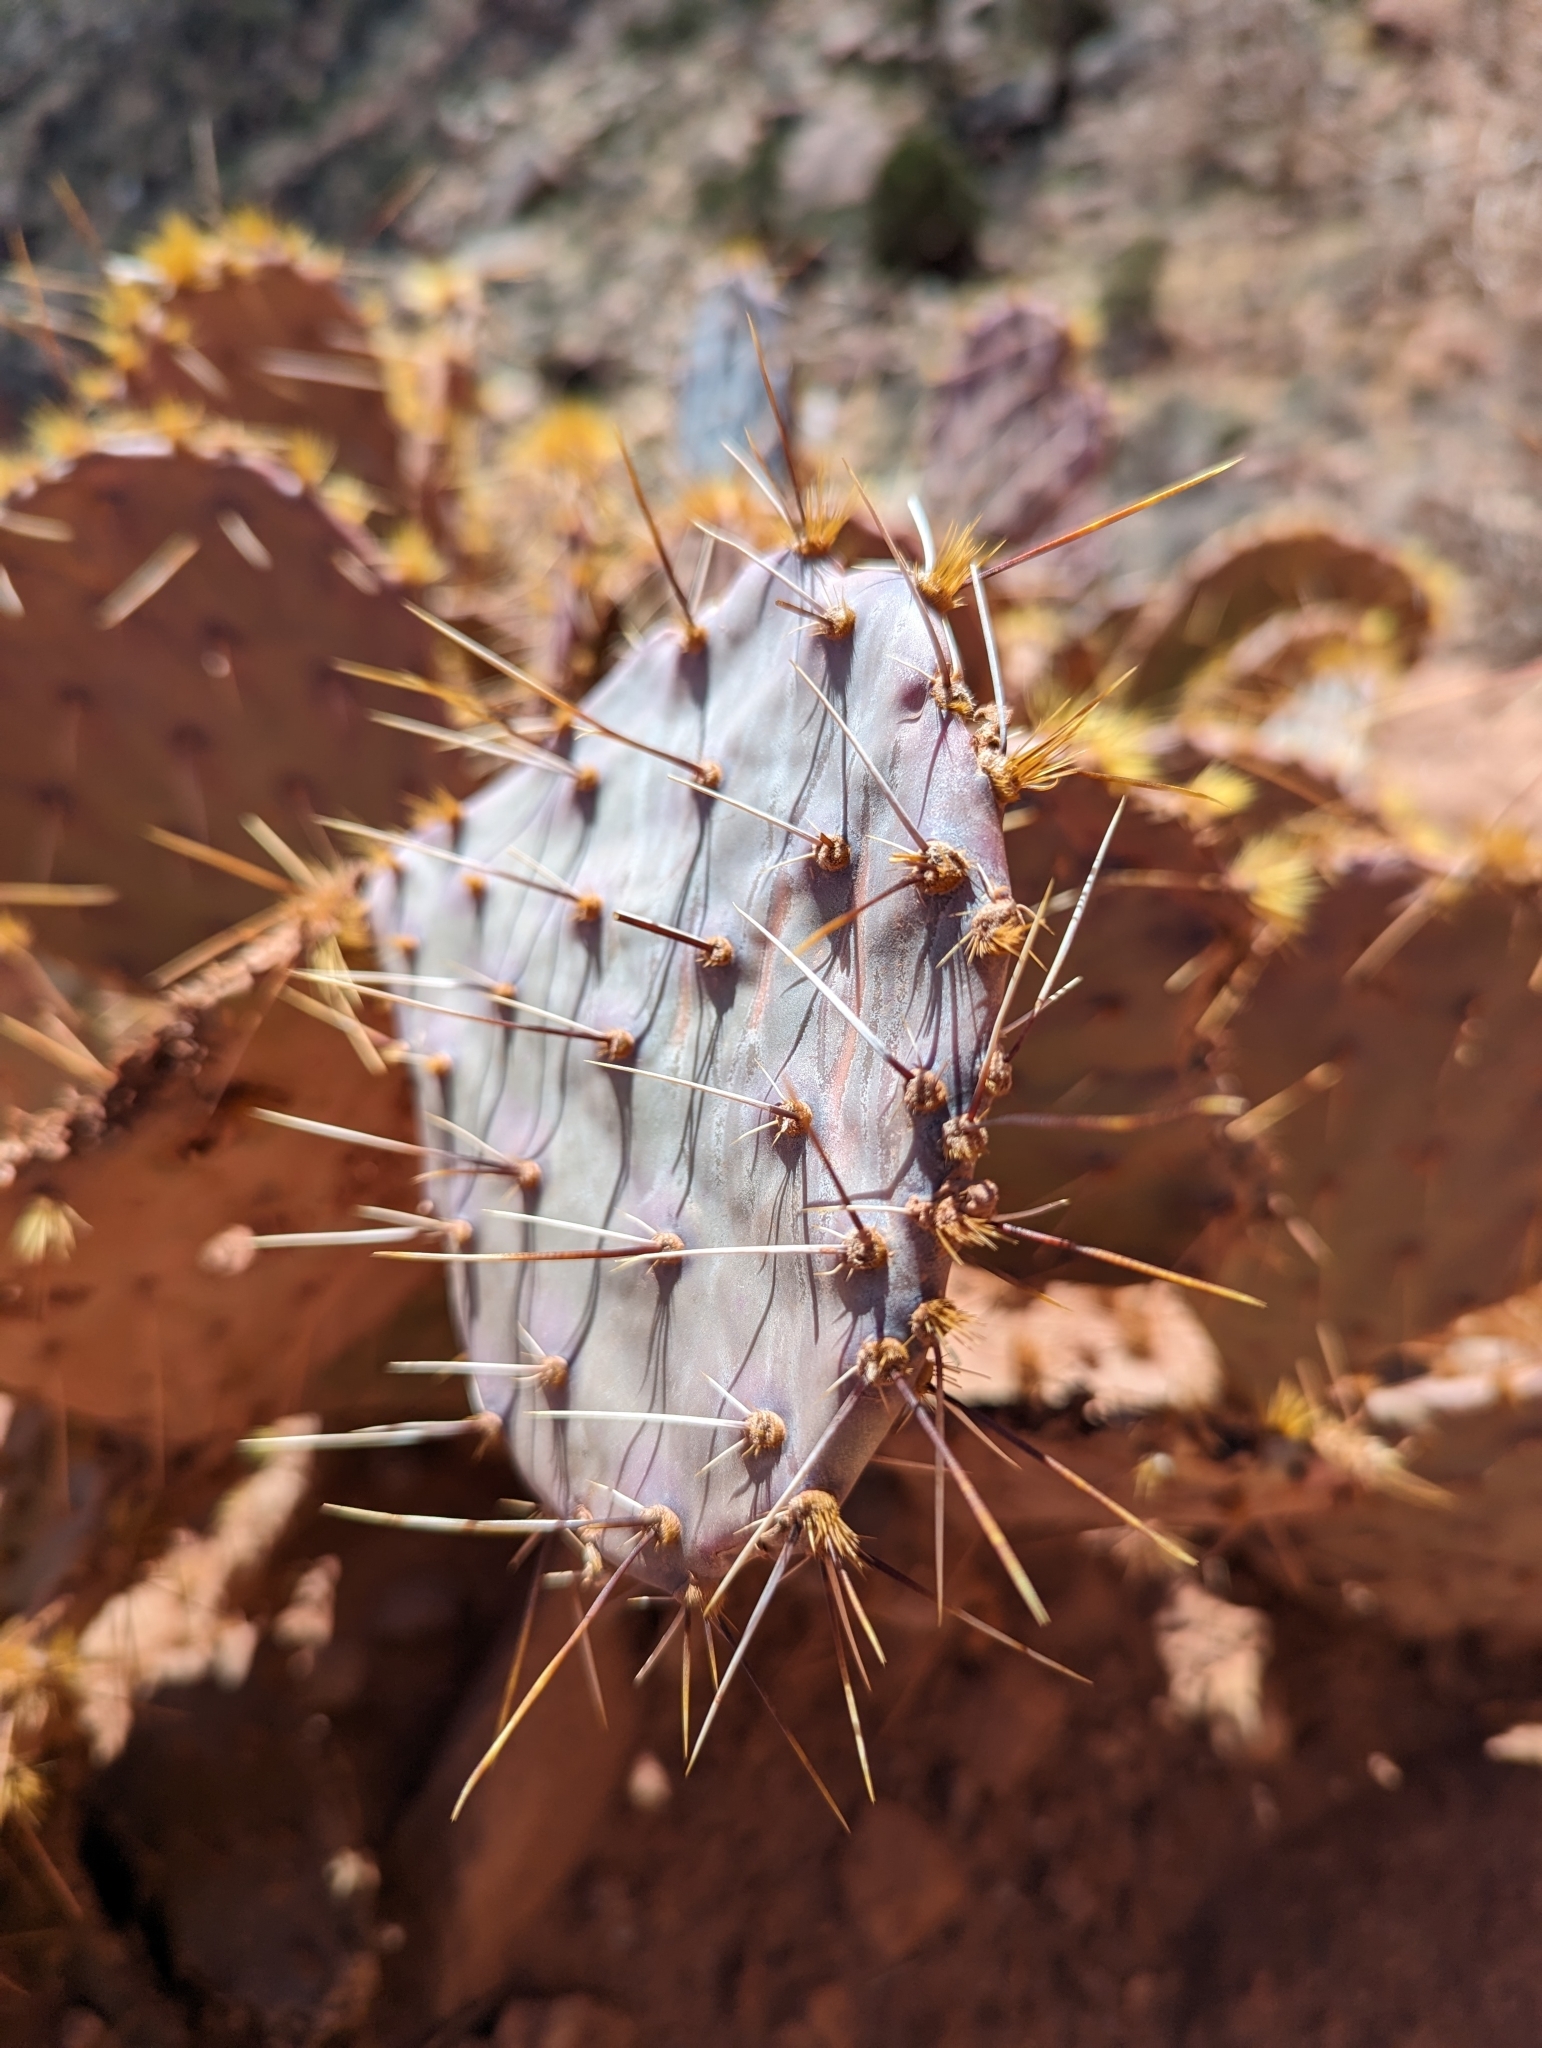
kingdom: Plantae
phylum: Tracheophyta
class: Magnoliopsida
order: Caryophyllales
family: Cactaceae
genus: Opuntia
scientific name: Opuntia phaeacantha
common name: New mexico prickly-pear
